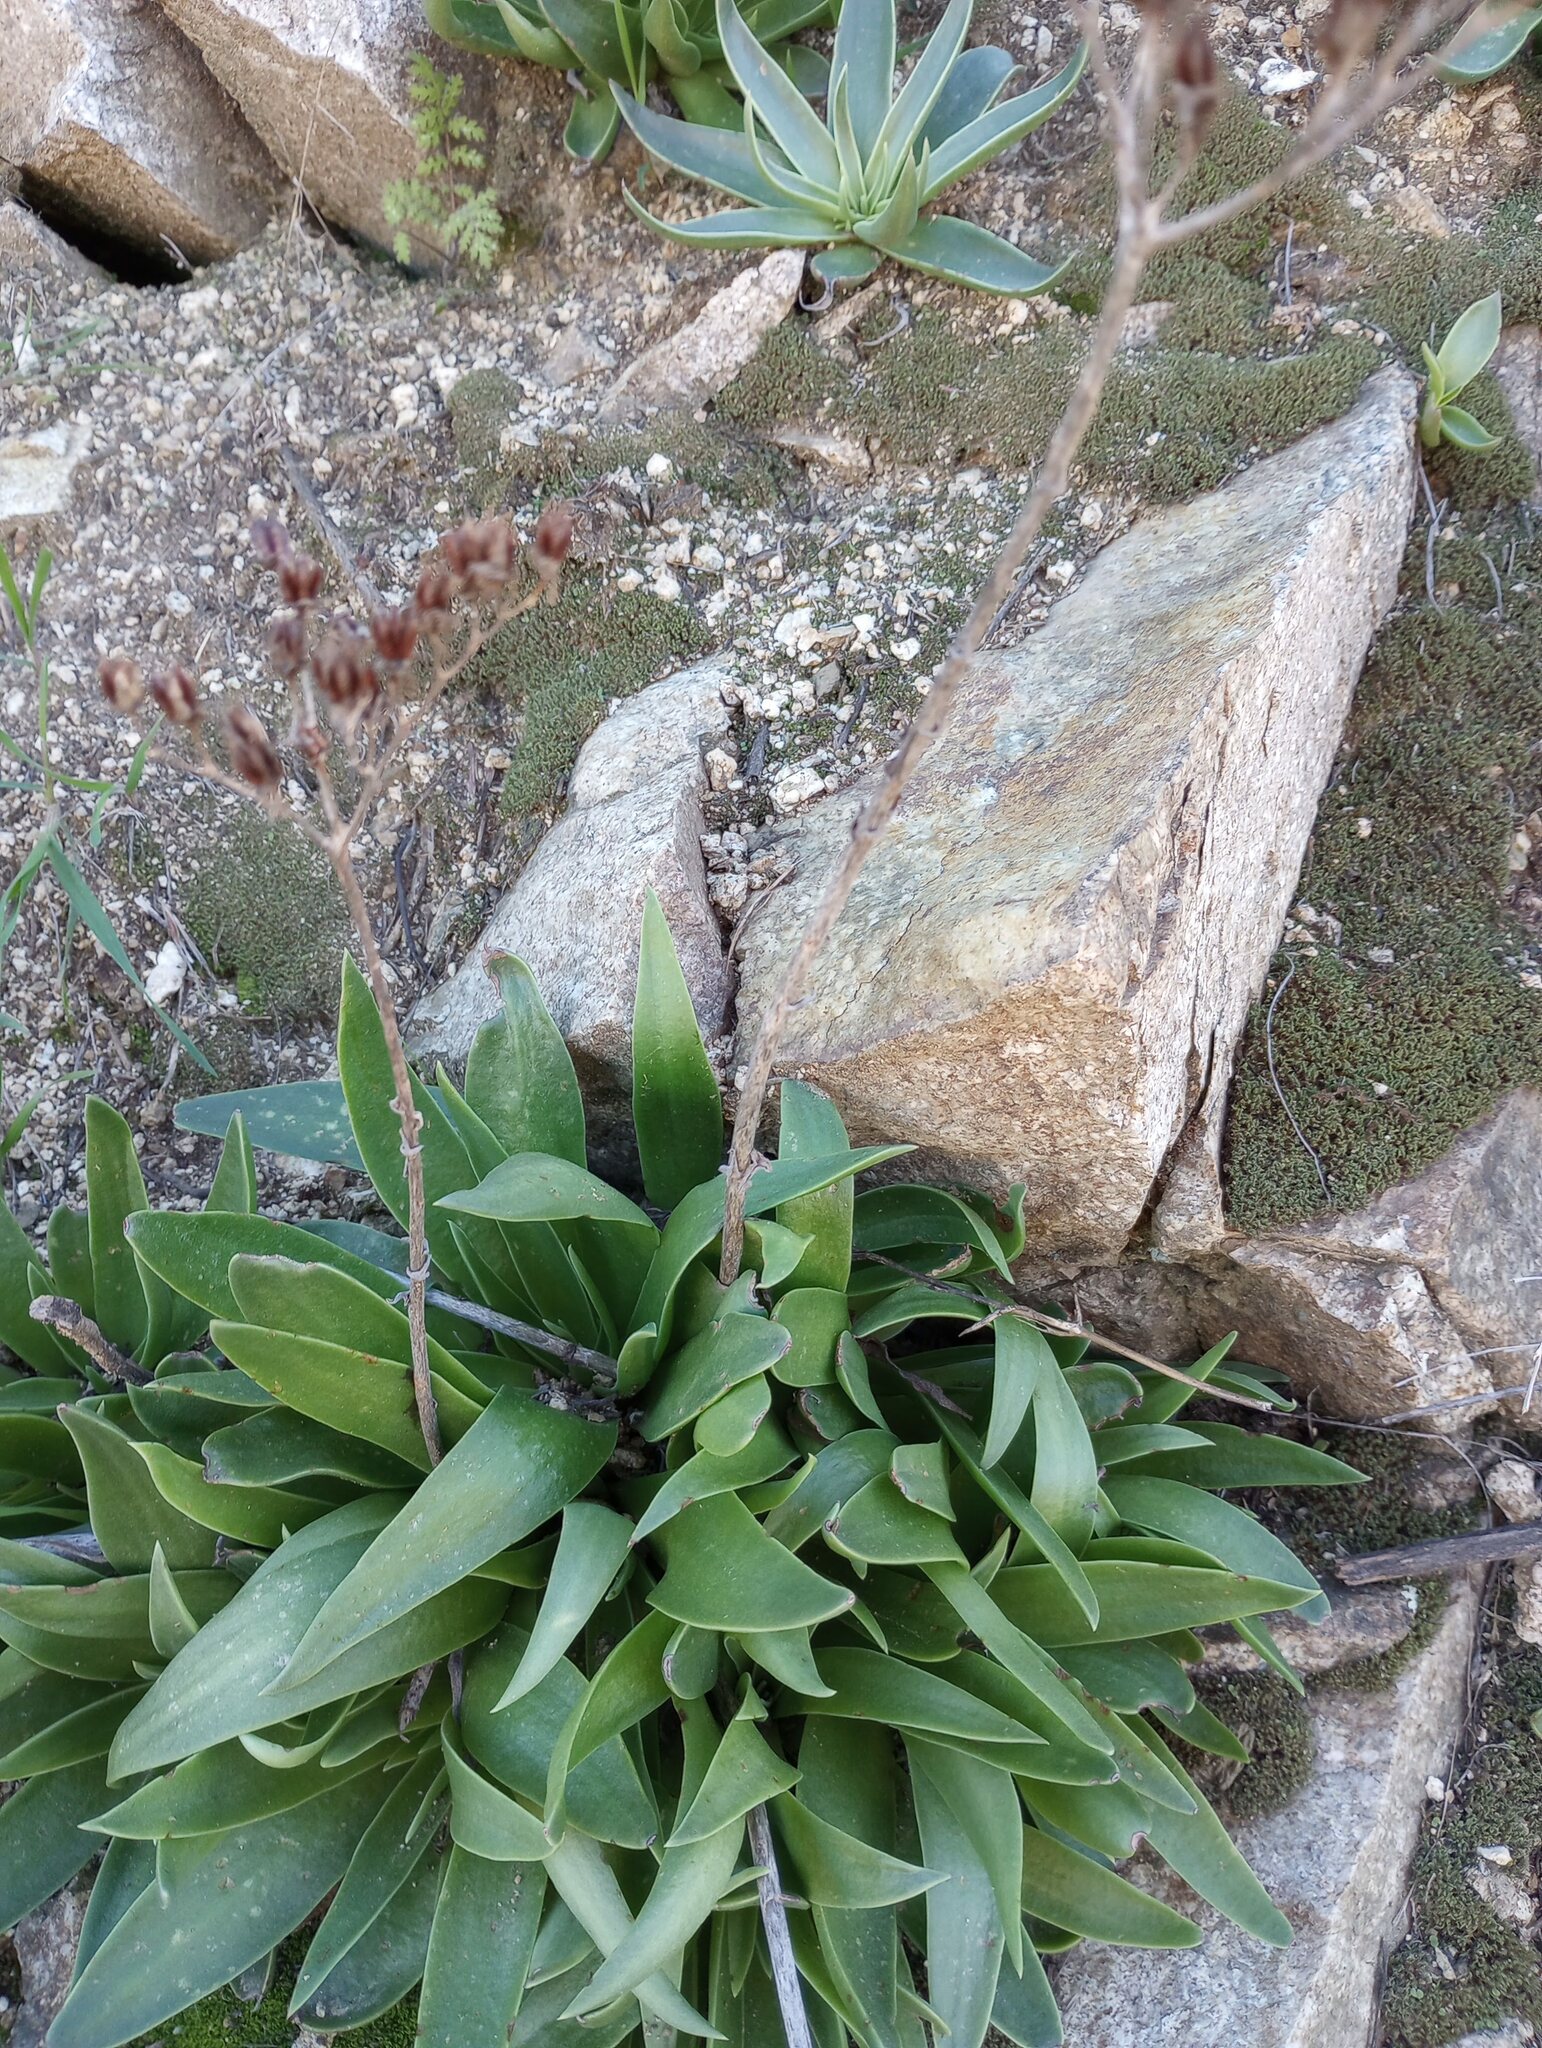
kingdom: Plantae
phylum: Tracheophyta
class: Magnoliopsida
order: Saxifragales
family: Crassulaceae
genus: Dudleya
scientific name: Dudleya lanceolata
